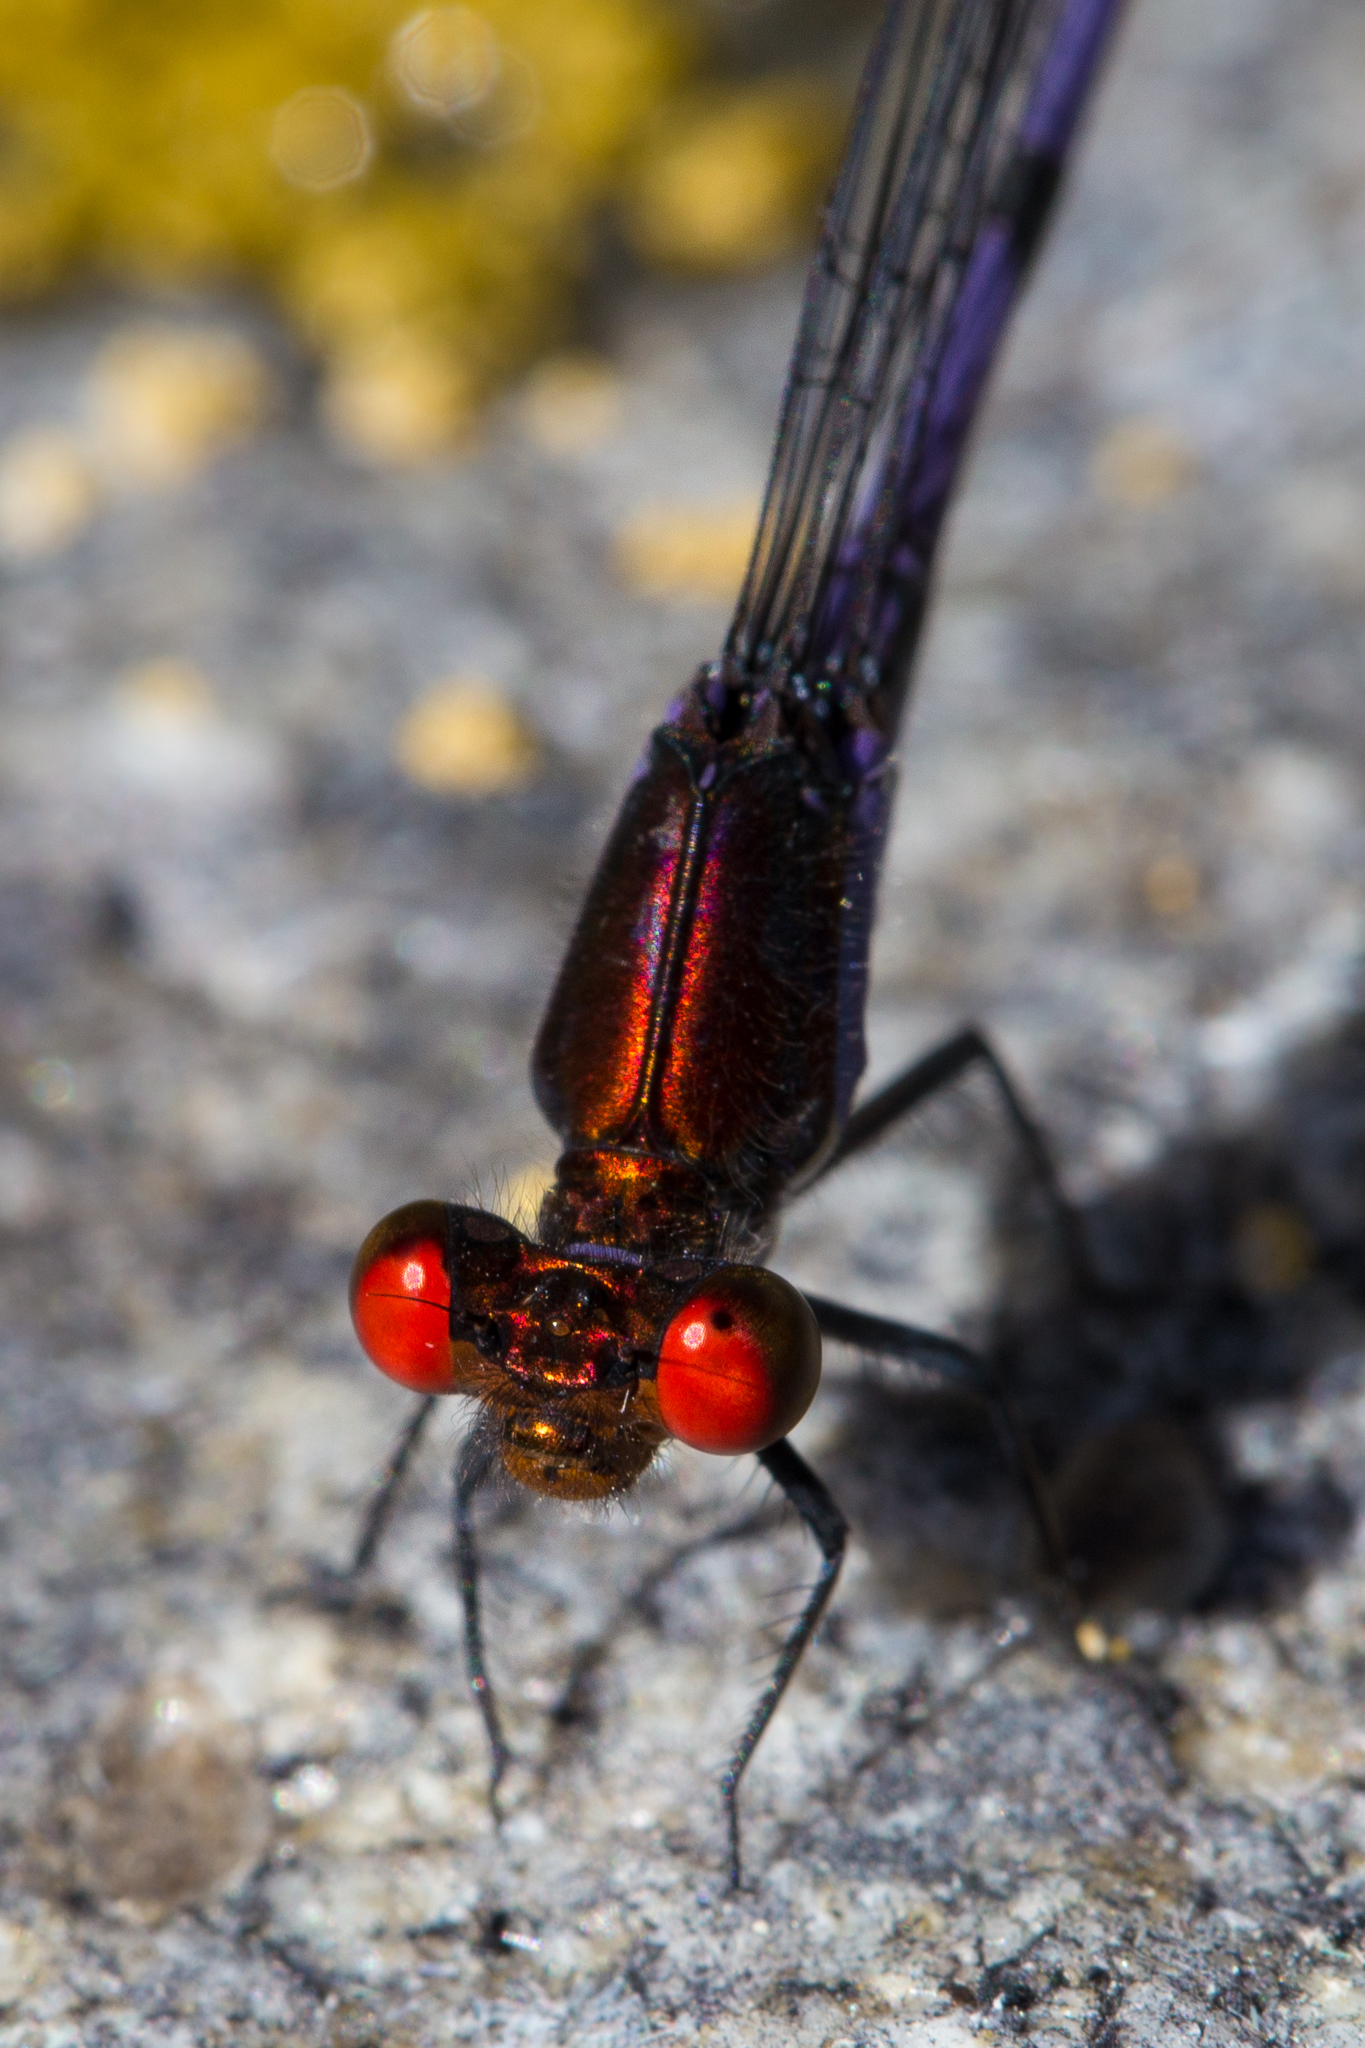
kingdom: Animalia
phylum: Arthropoda
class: Insecta
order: Odonata
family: Coenagrionidae
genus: Argia
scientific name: Argia oenea
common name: Fiery-eyed dancer
